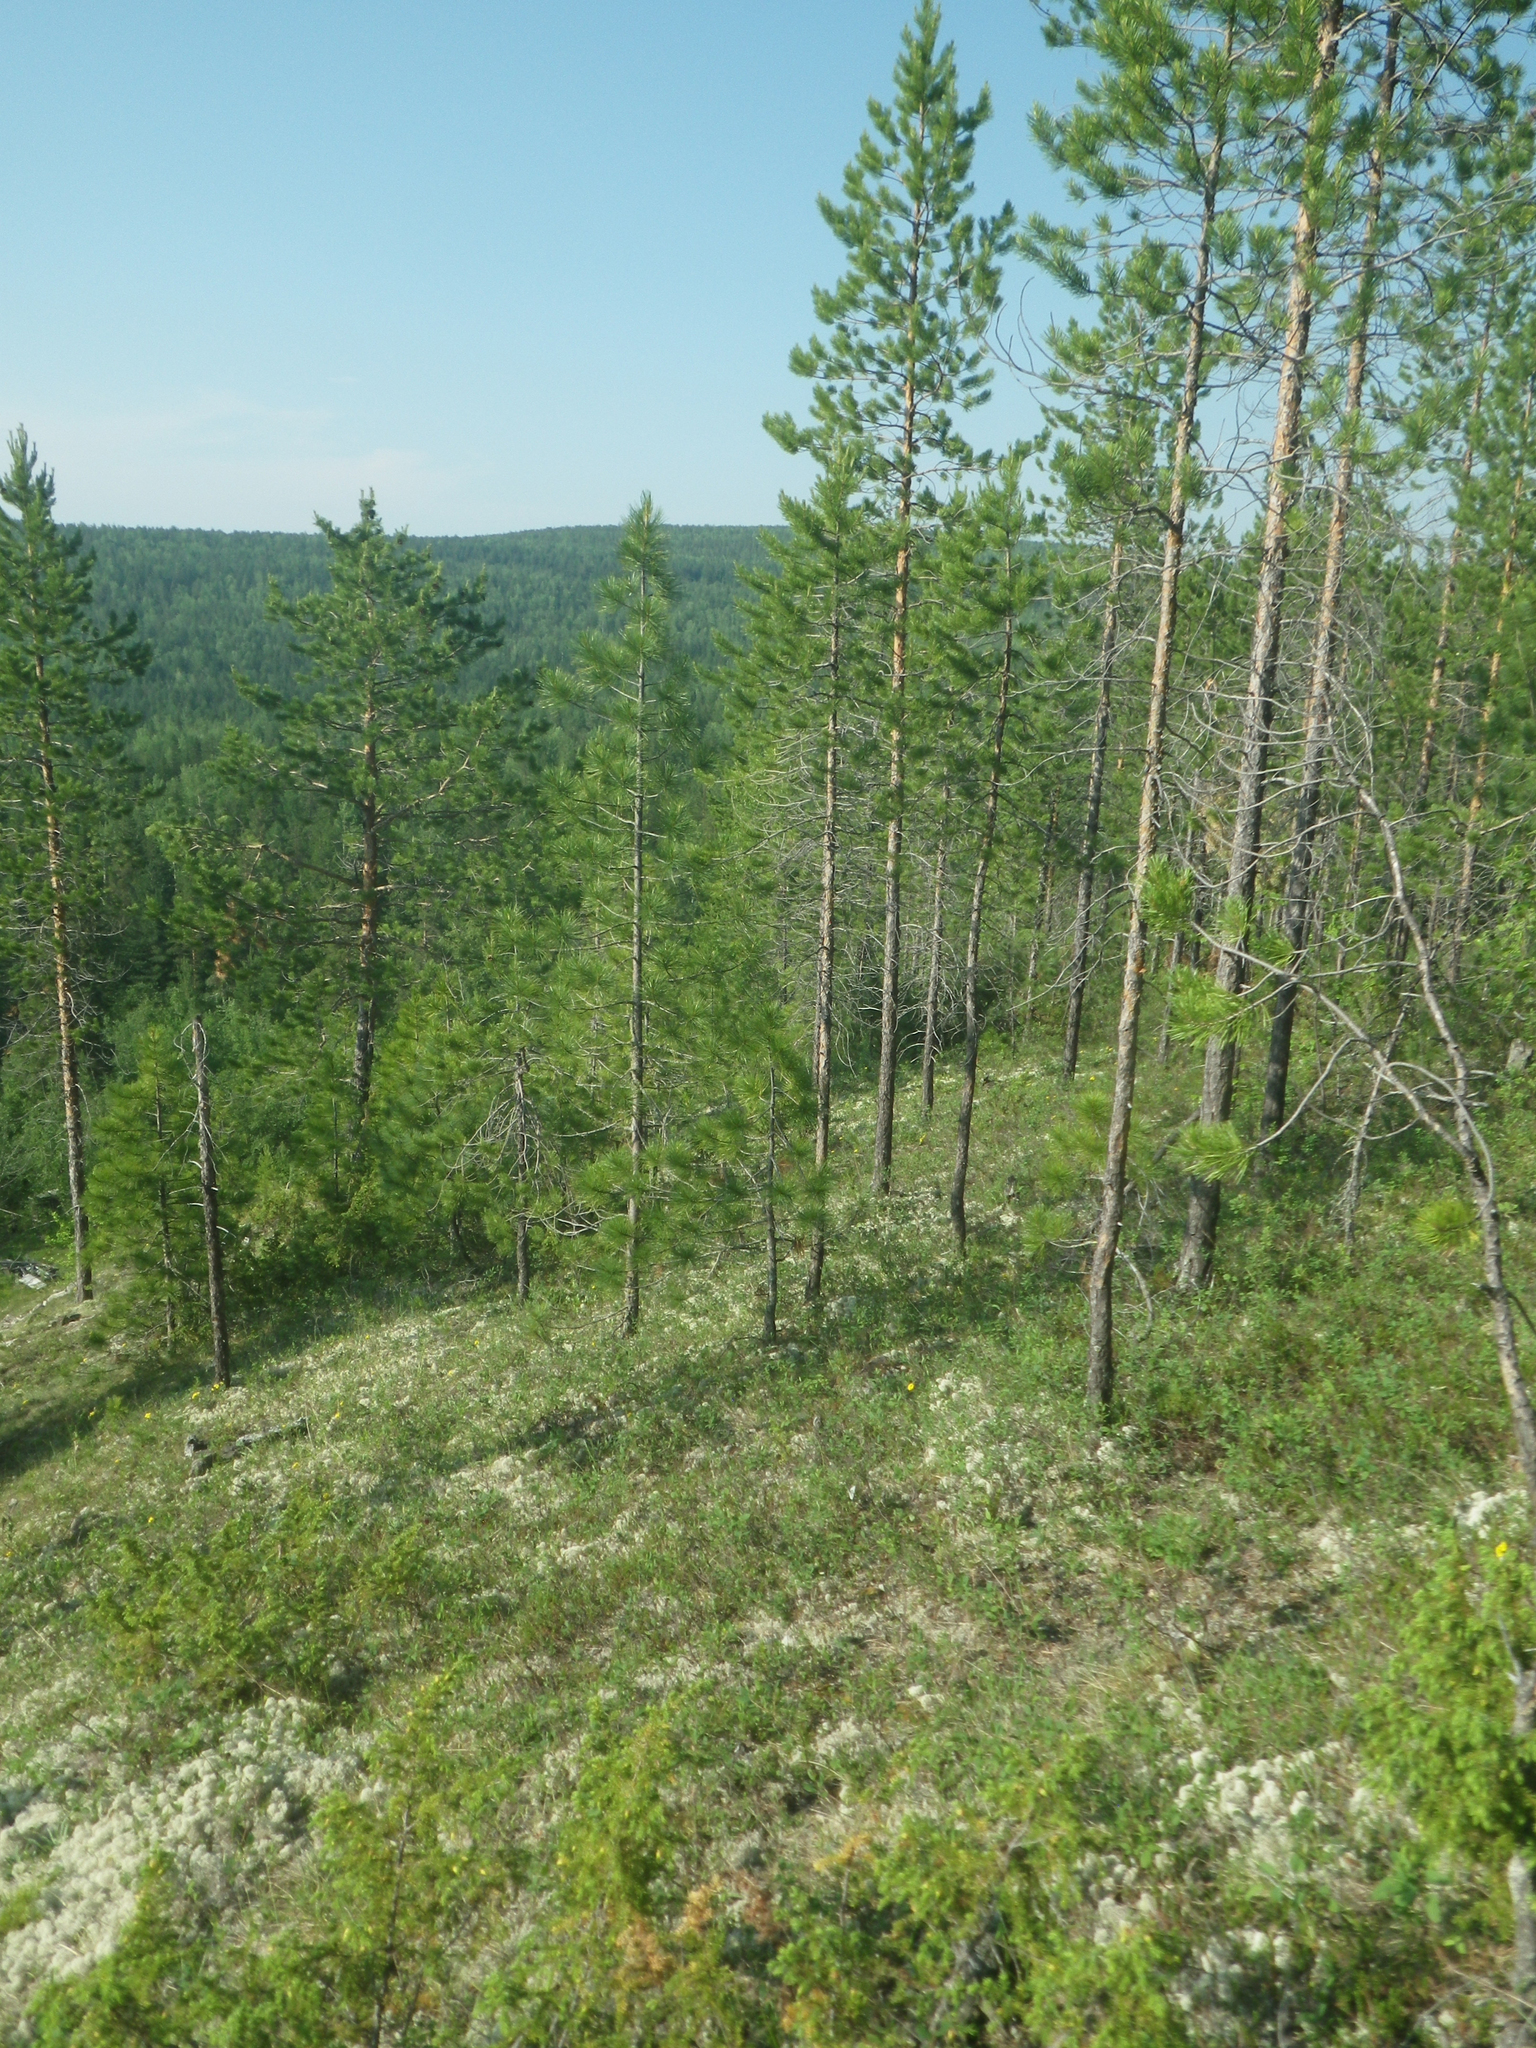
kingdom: Plantae
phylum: Tracheophyta
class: Pinopsida
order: Pinales
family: Pinaceae
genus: Pinus
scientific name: Pinus sylvestris
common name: Scots pine
